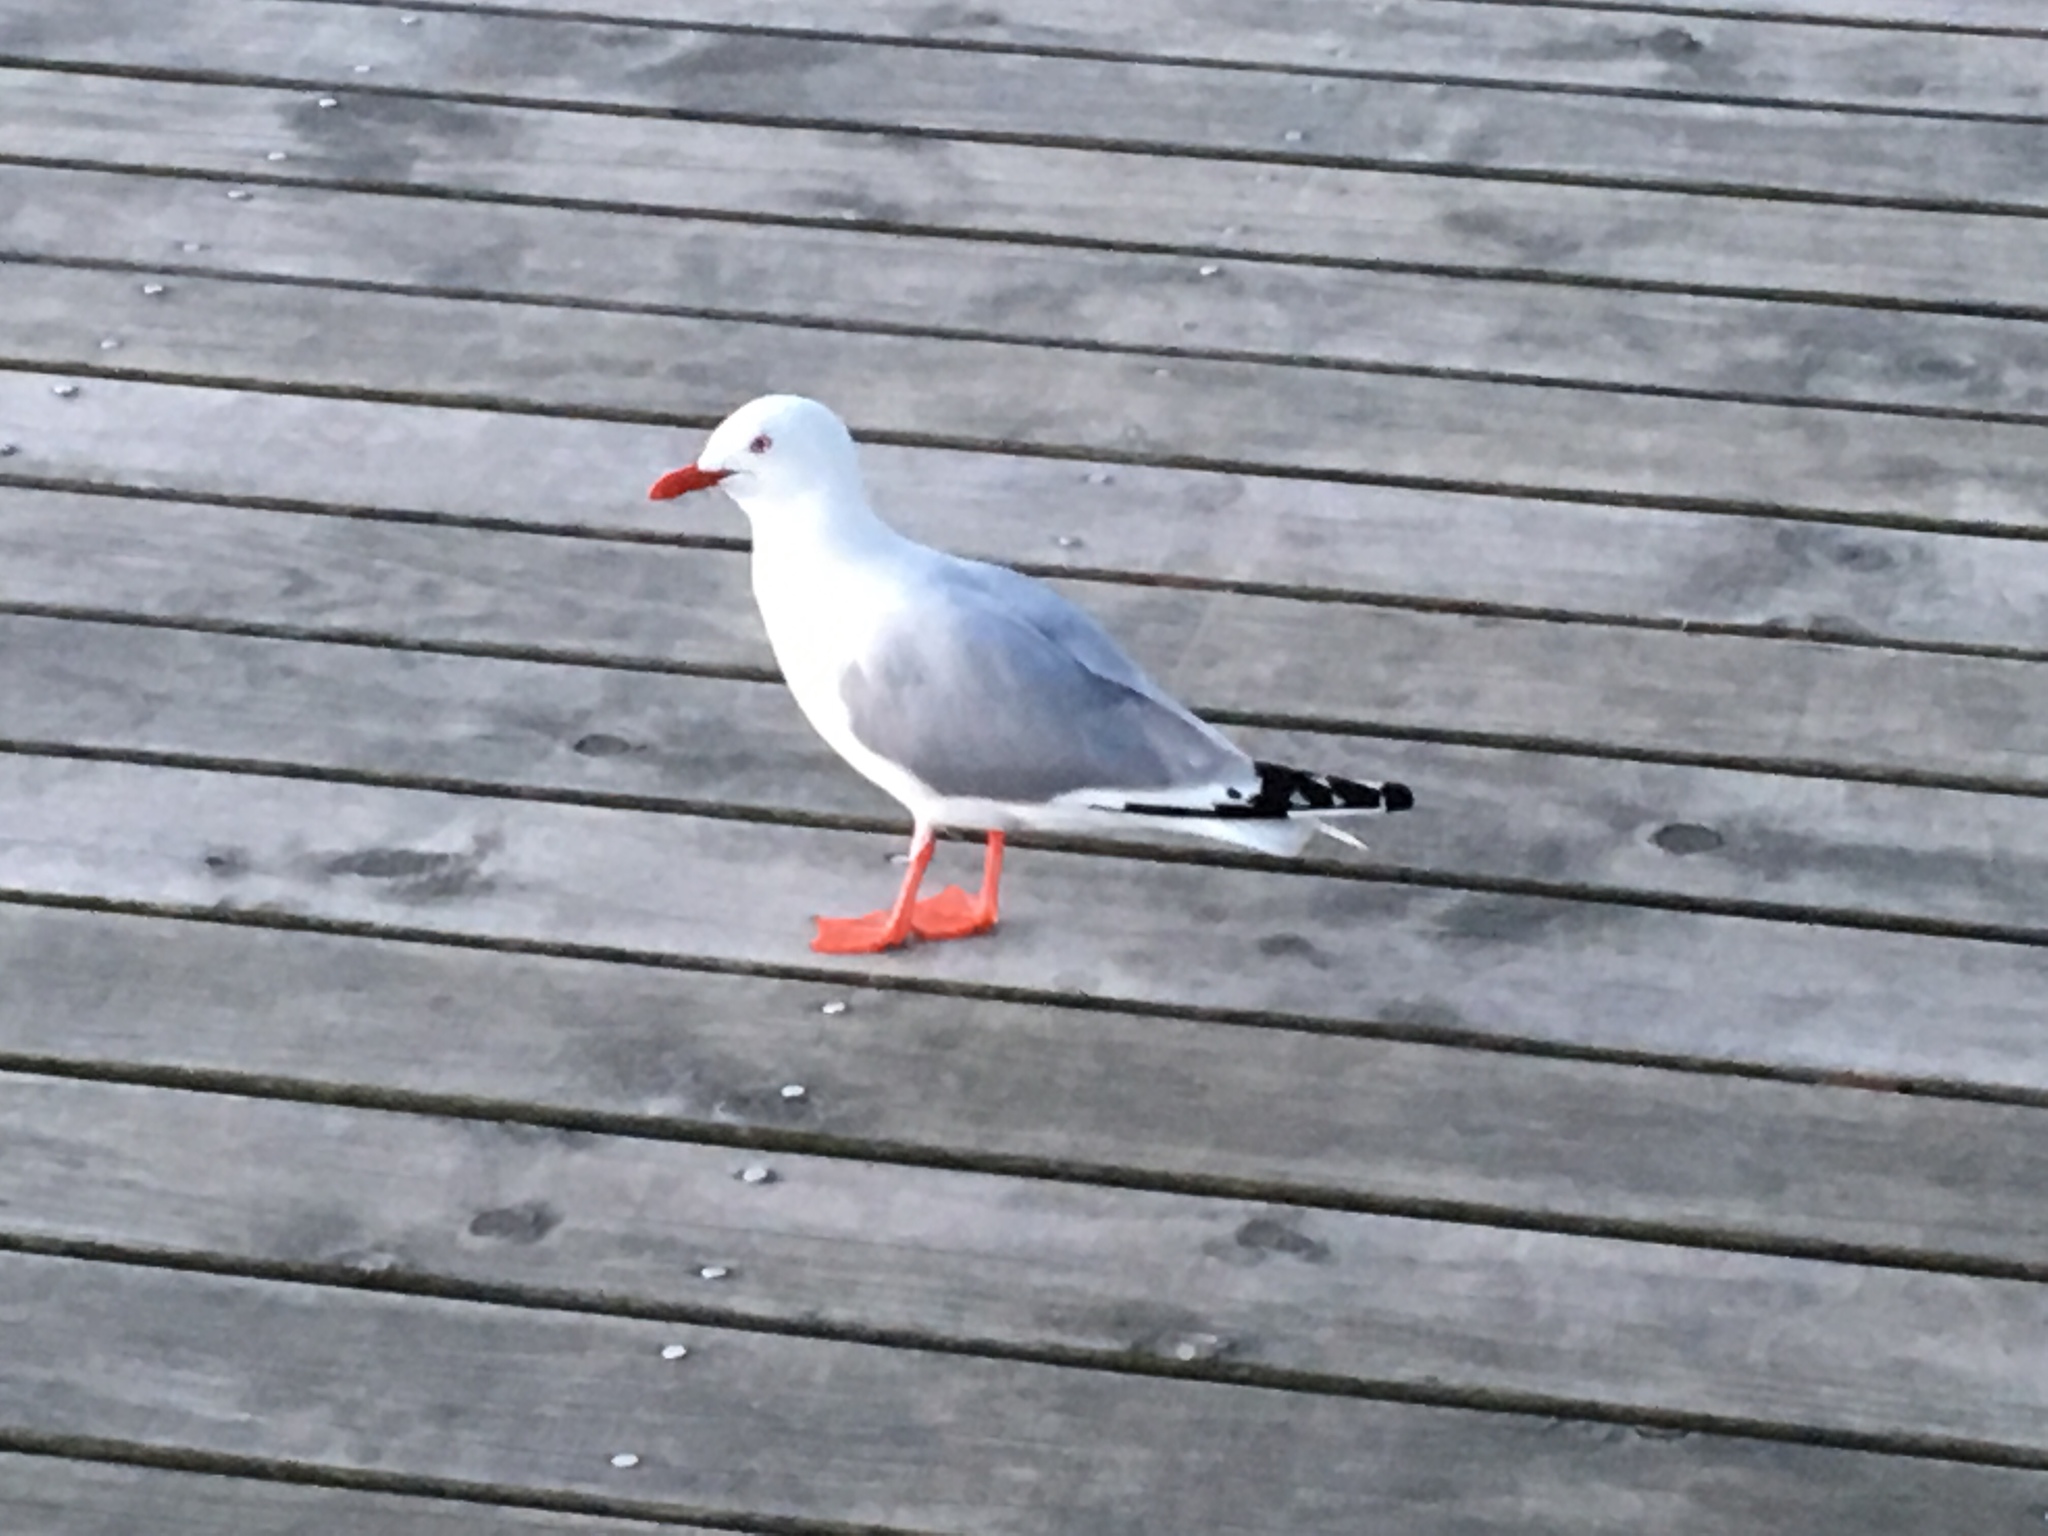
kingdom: Animalia
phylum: Chordata
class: Aves
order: Charadriiformes
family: Laridae
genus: Chroicocephalus
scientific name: Chroicocephalus novaehollandiae
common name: Silver gull
